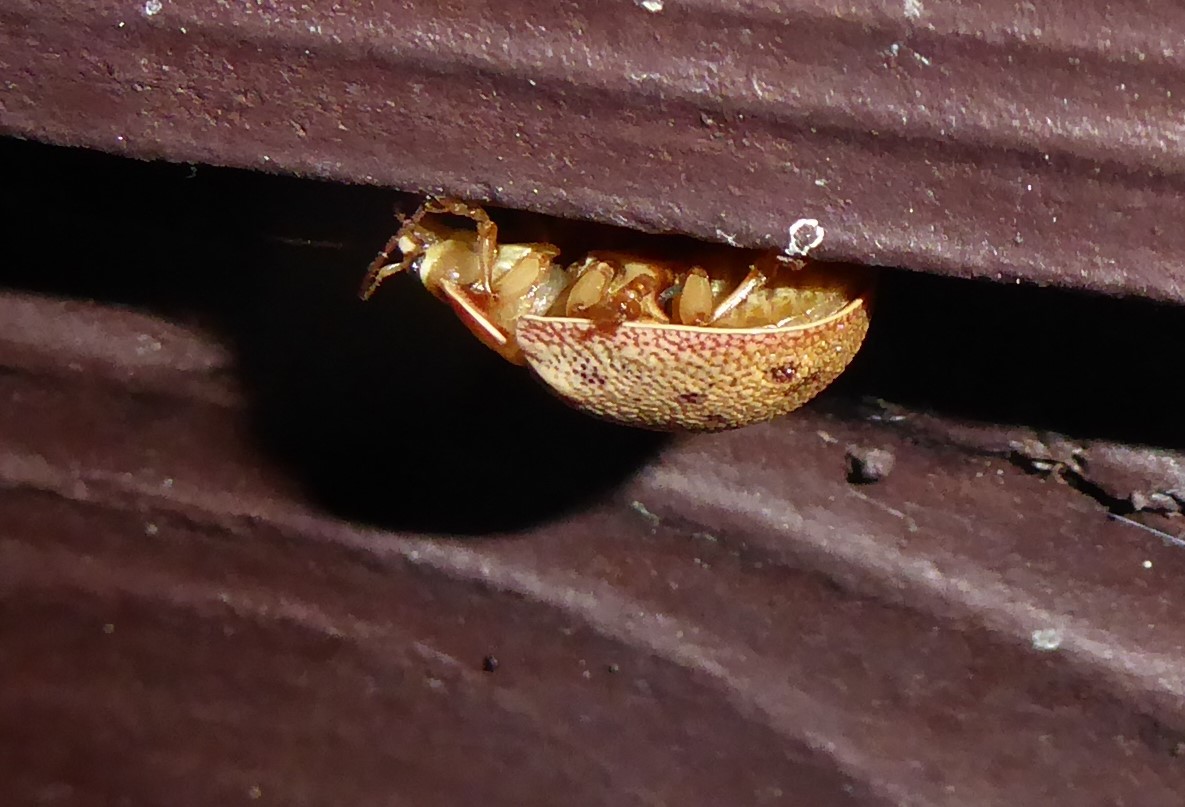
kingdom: Animalia
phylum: Arthropoda
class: Insecta
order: Coleoptera
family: Chrysomelidae
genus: Paropsis
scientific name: Paropsis charybdis
